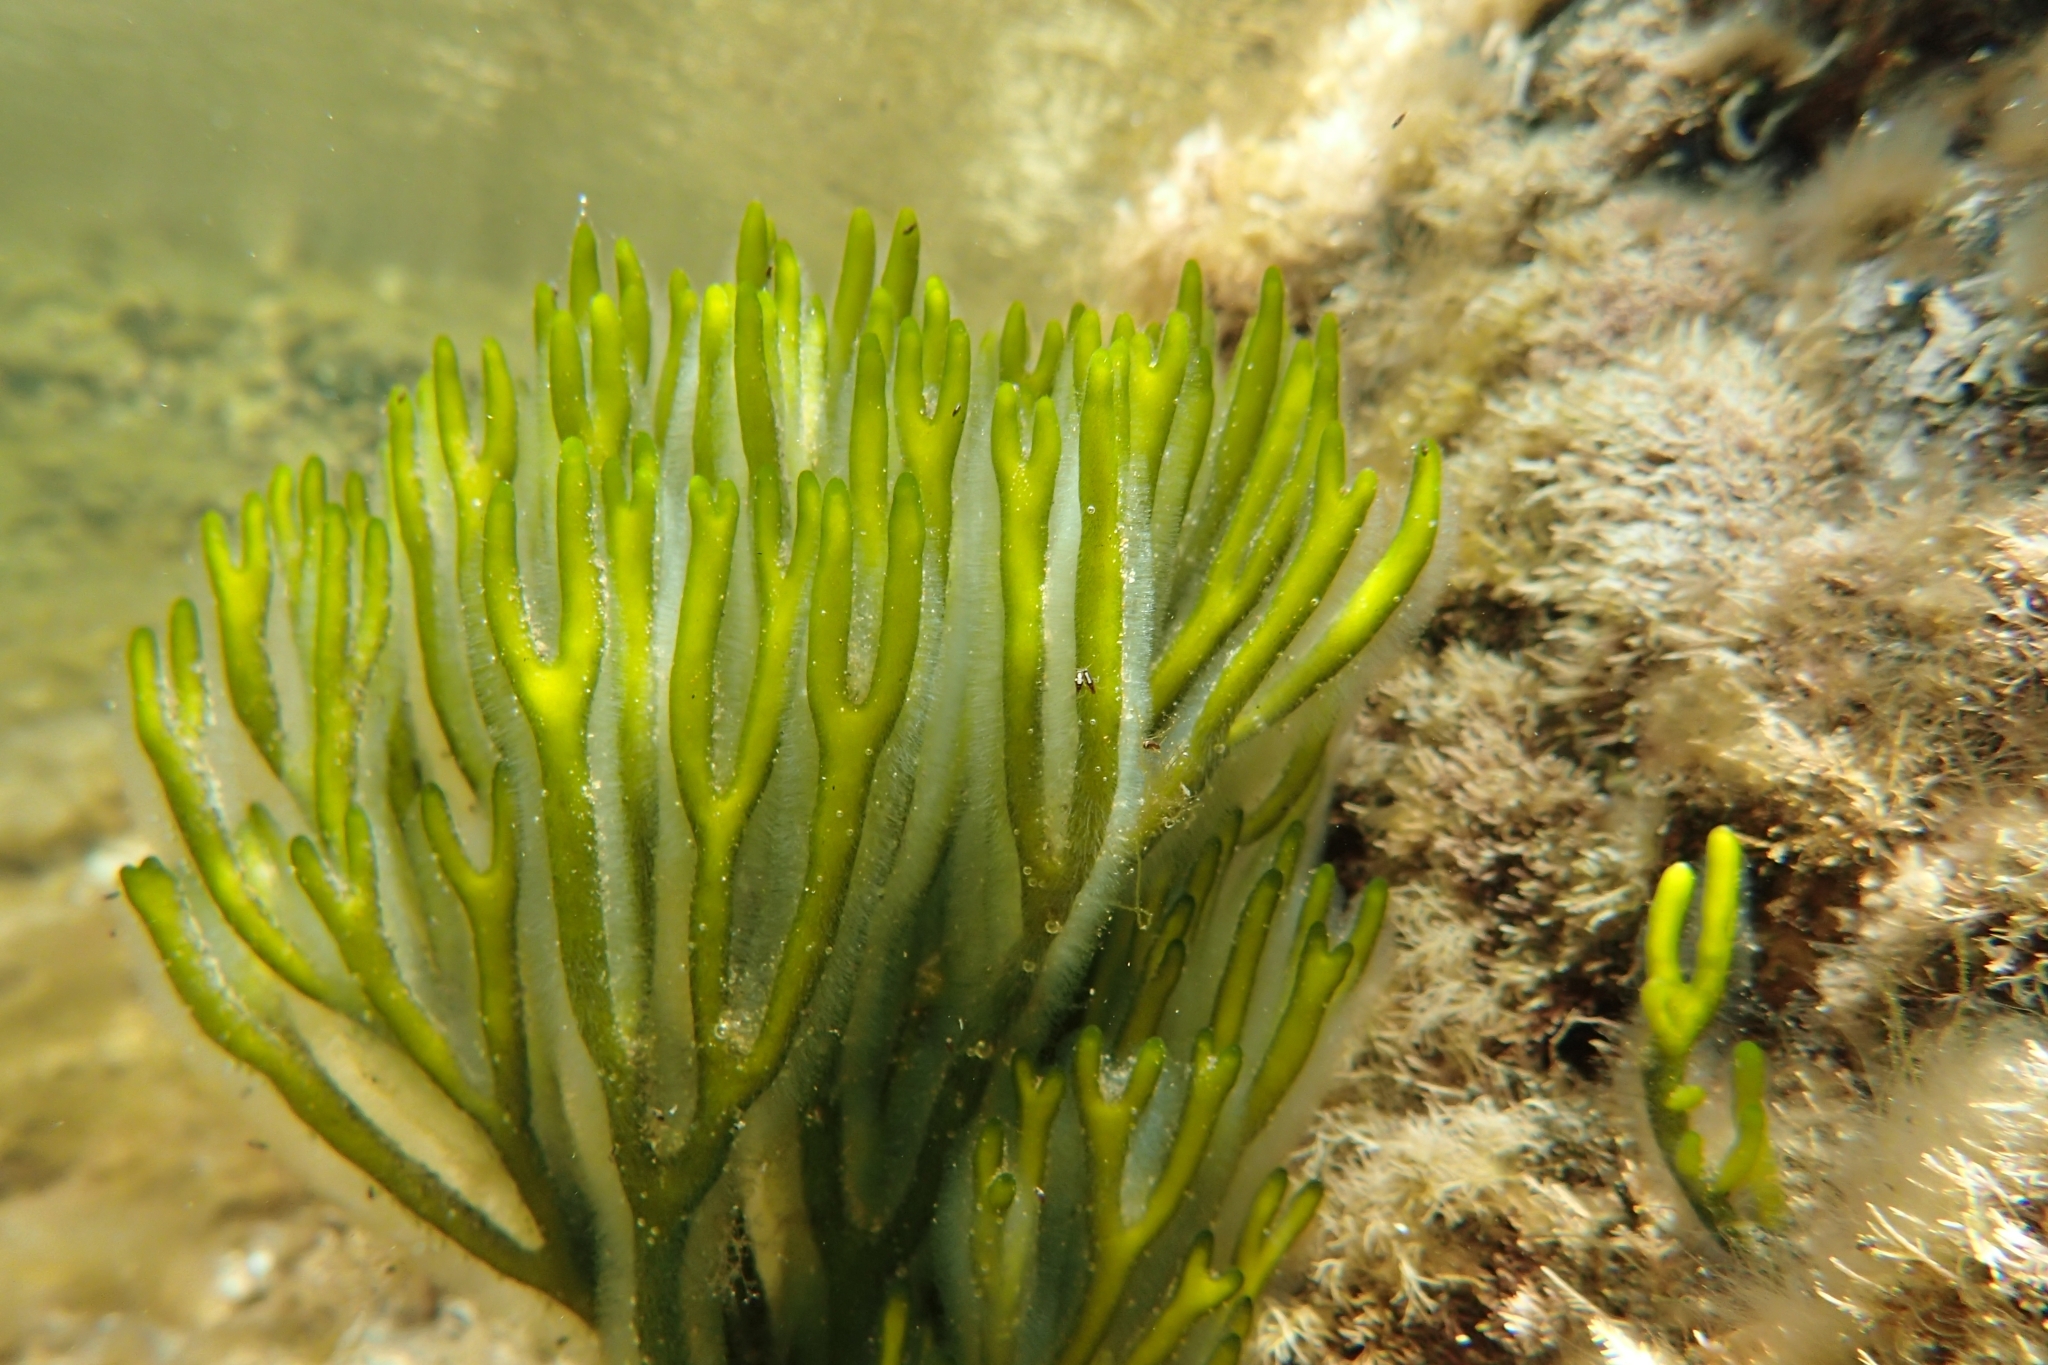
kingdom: Plantae
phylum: Chlorophyta
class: Ulvophyceae
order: Bryopsidales
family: Codiaceae
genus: Codium
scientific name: Codium fragile
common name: Dead man's fingers
